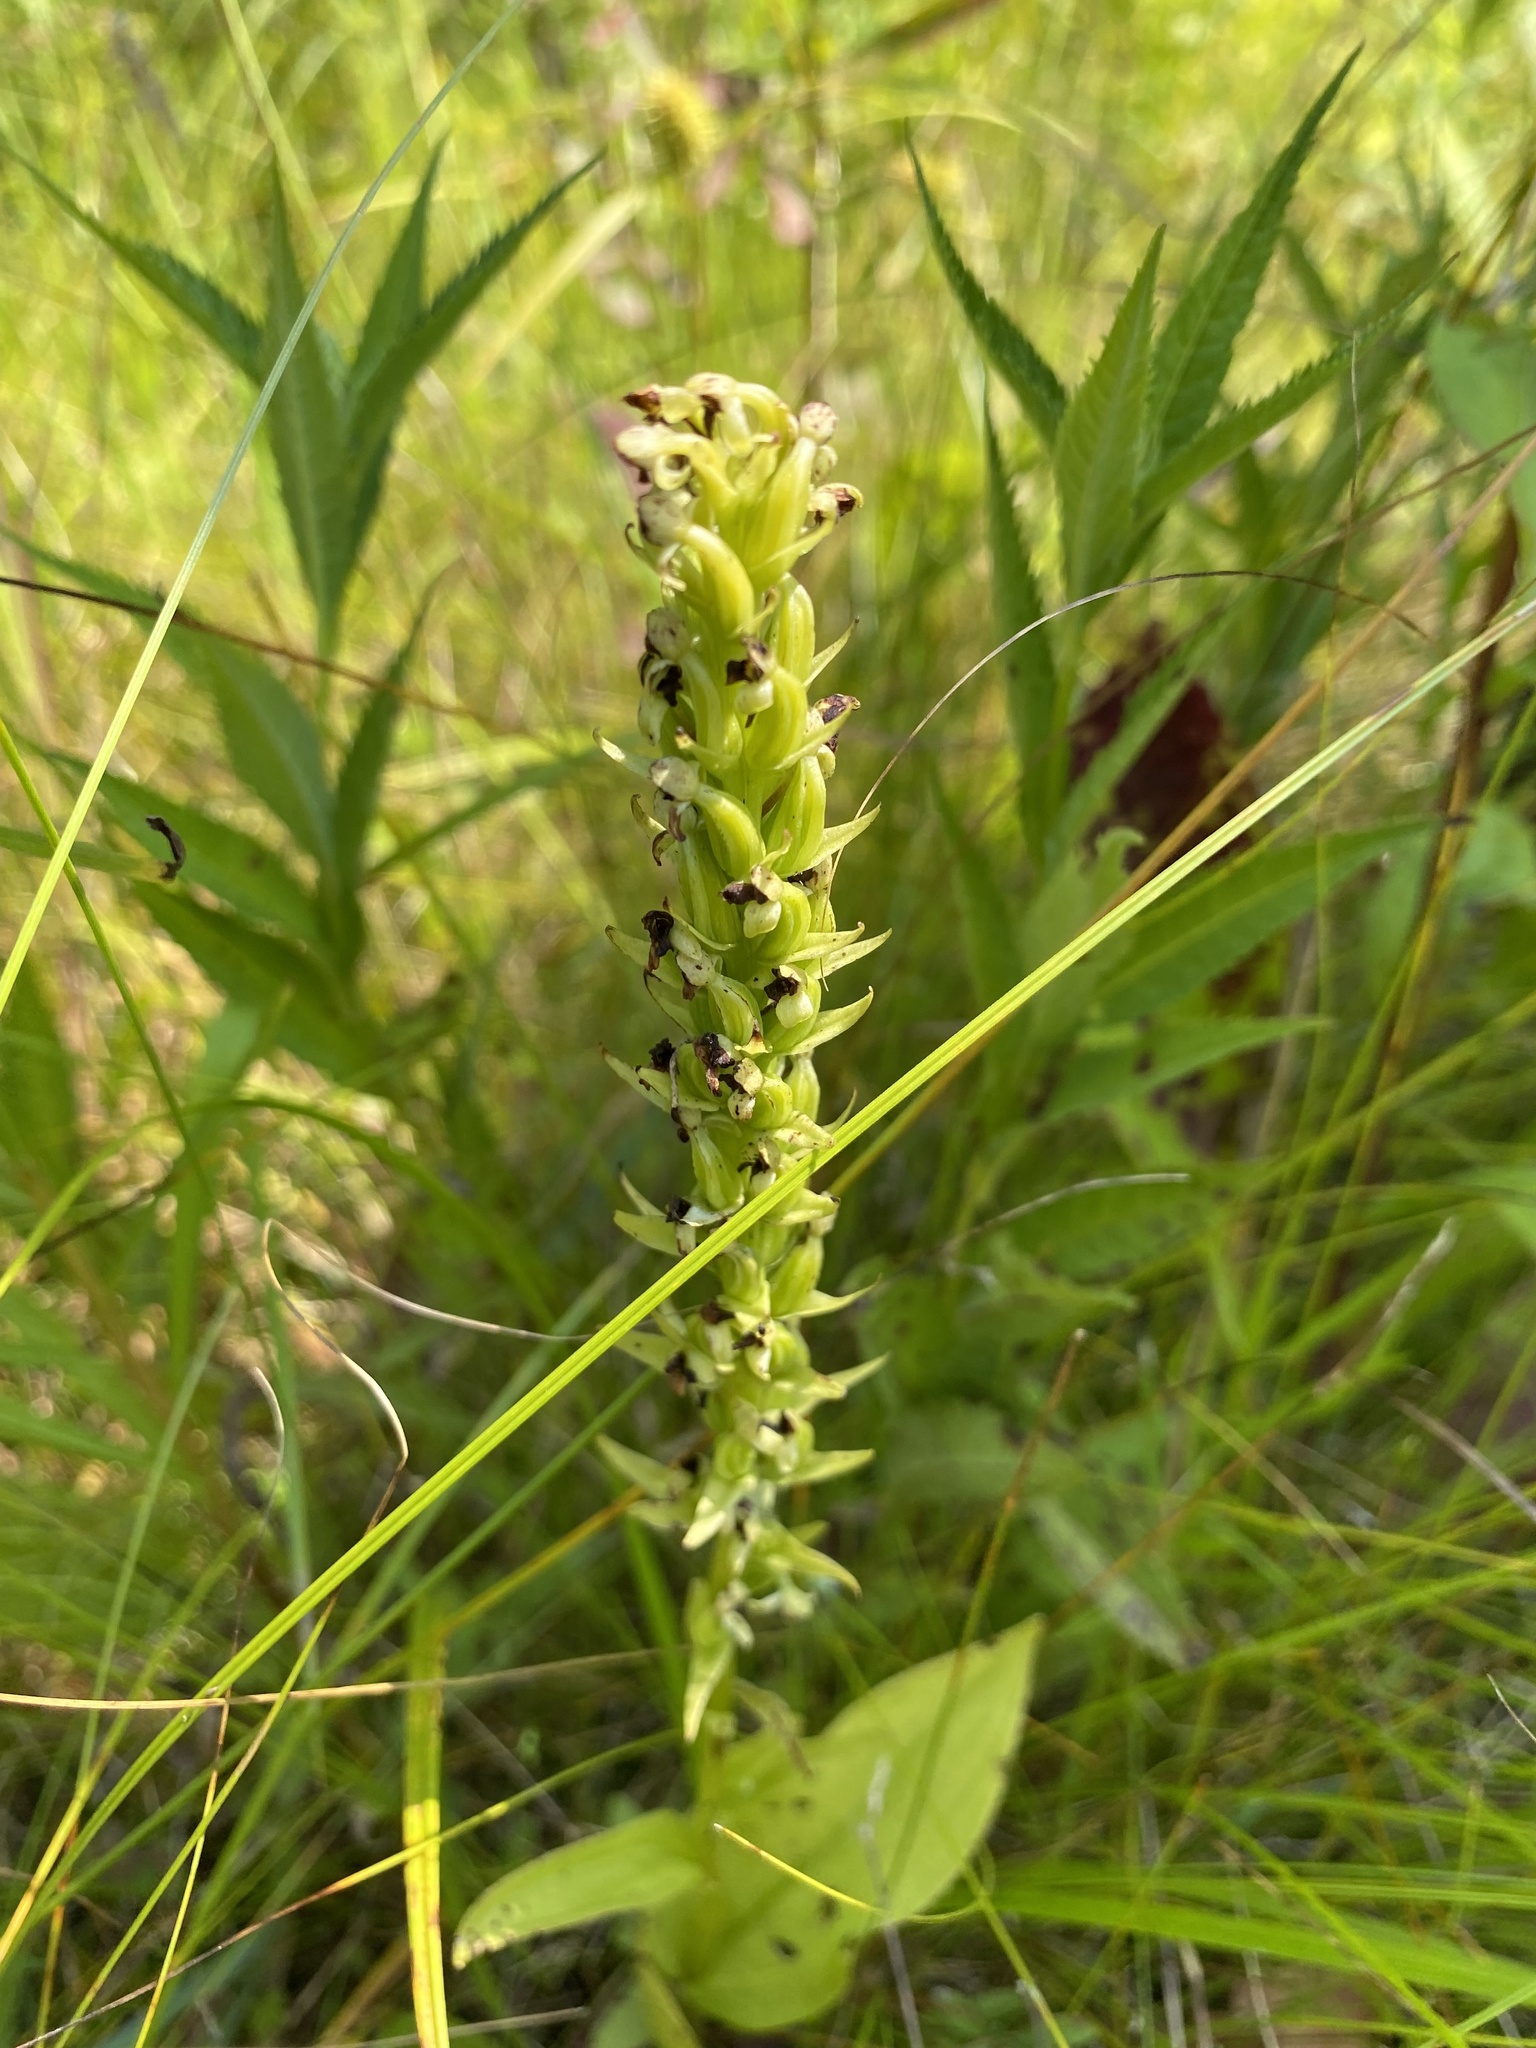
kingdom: Plantae
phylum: Tracheophyta
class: Liliopsida
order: Asparagales
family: Orchidaceae
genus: Platanthera
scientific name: Platanthera flava
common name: Gypsy-spikes
